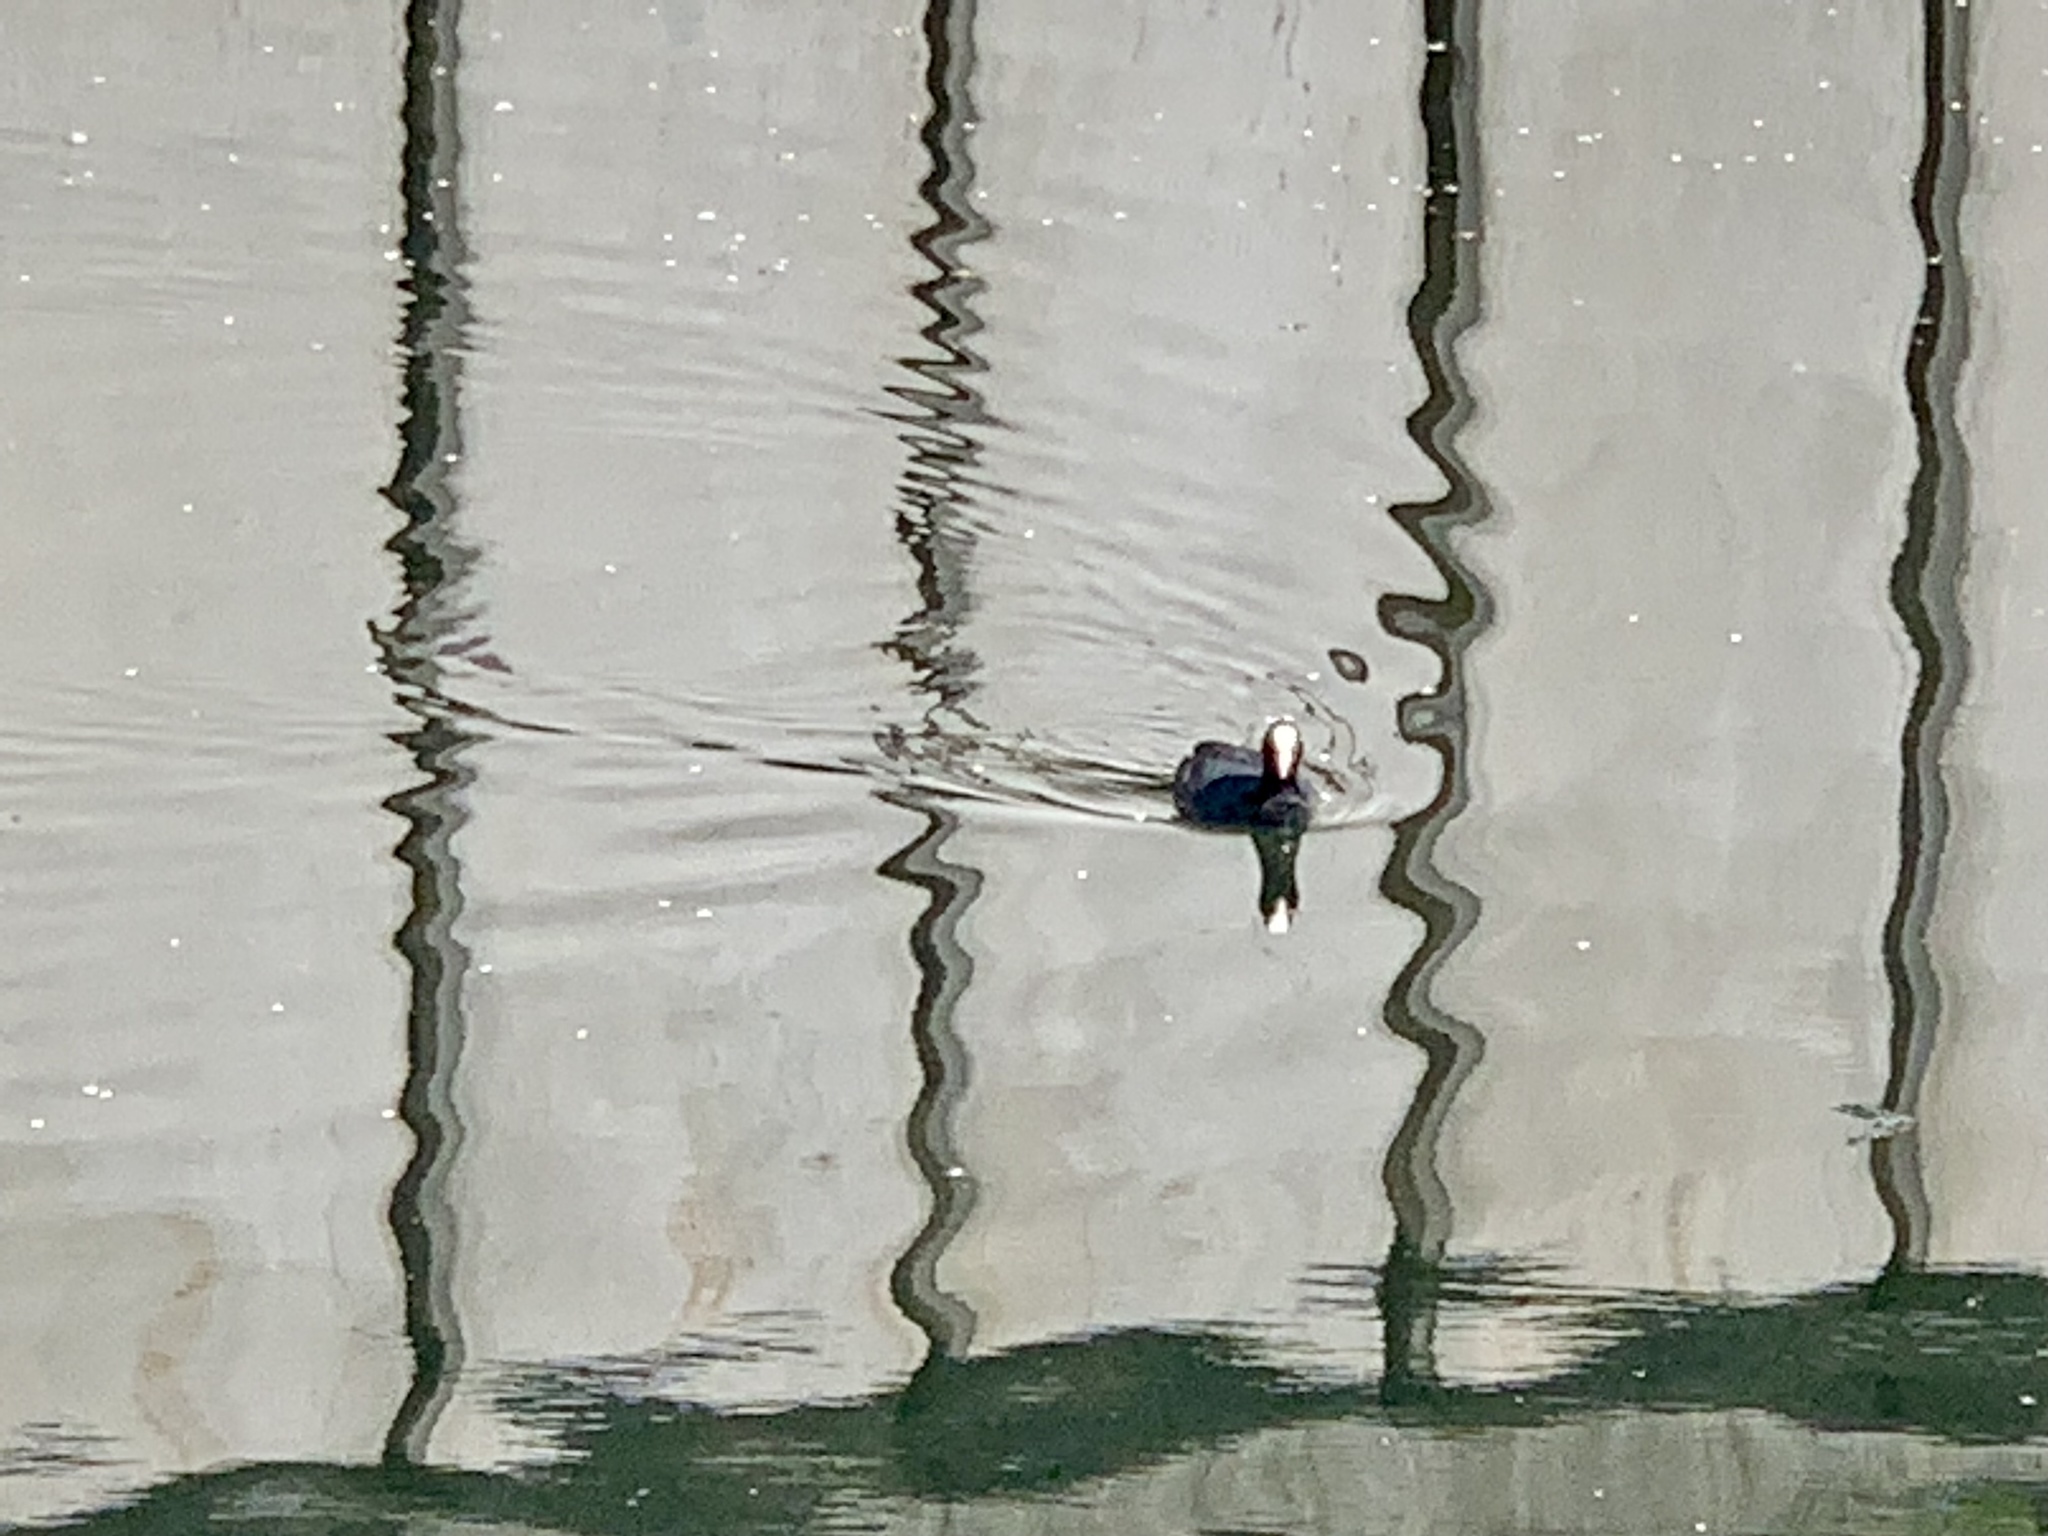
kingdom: Animalia
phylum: Chordata
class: Aves
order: Gruiformes
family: Rallidae
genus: Fulica
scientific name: Fulica atra
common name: Eurasian coot
